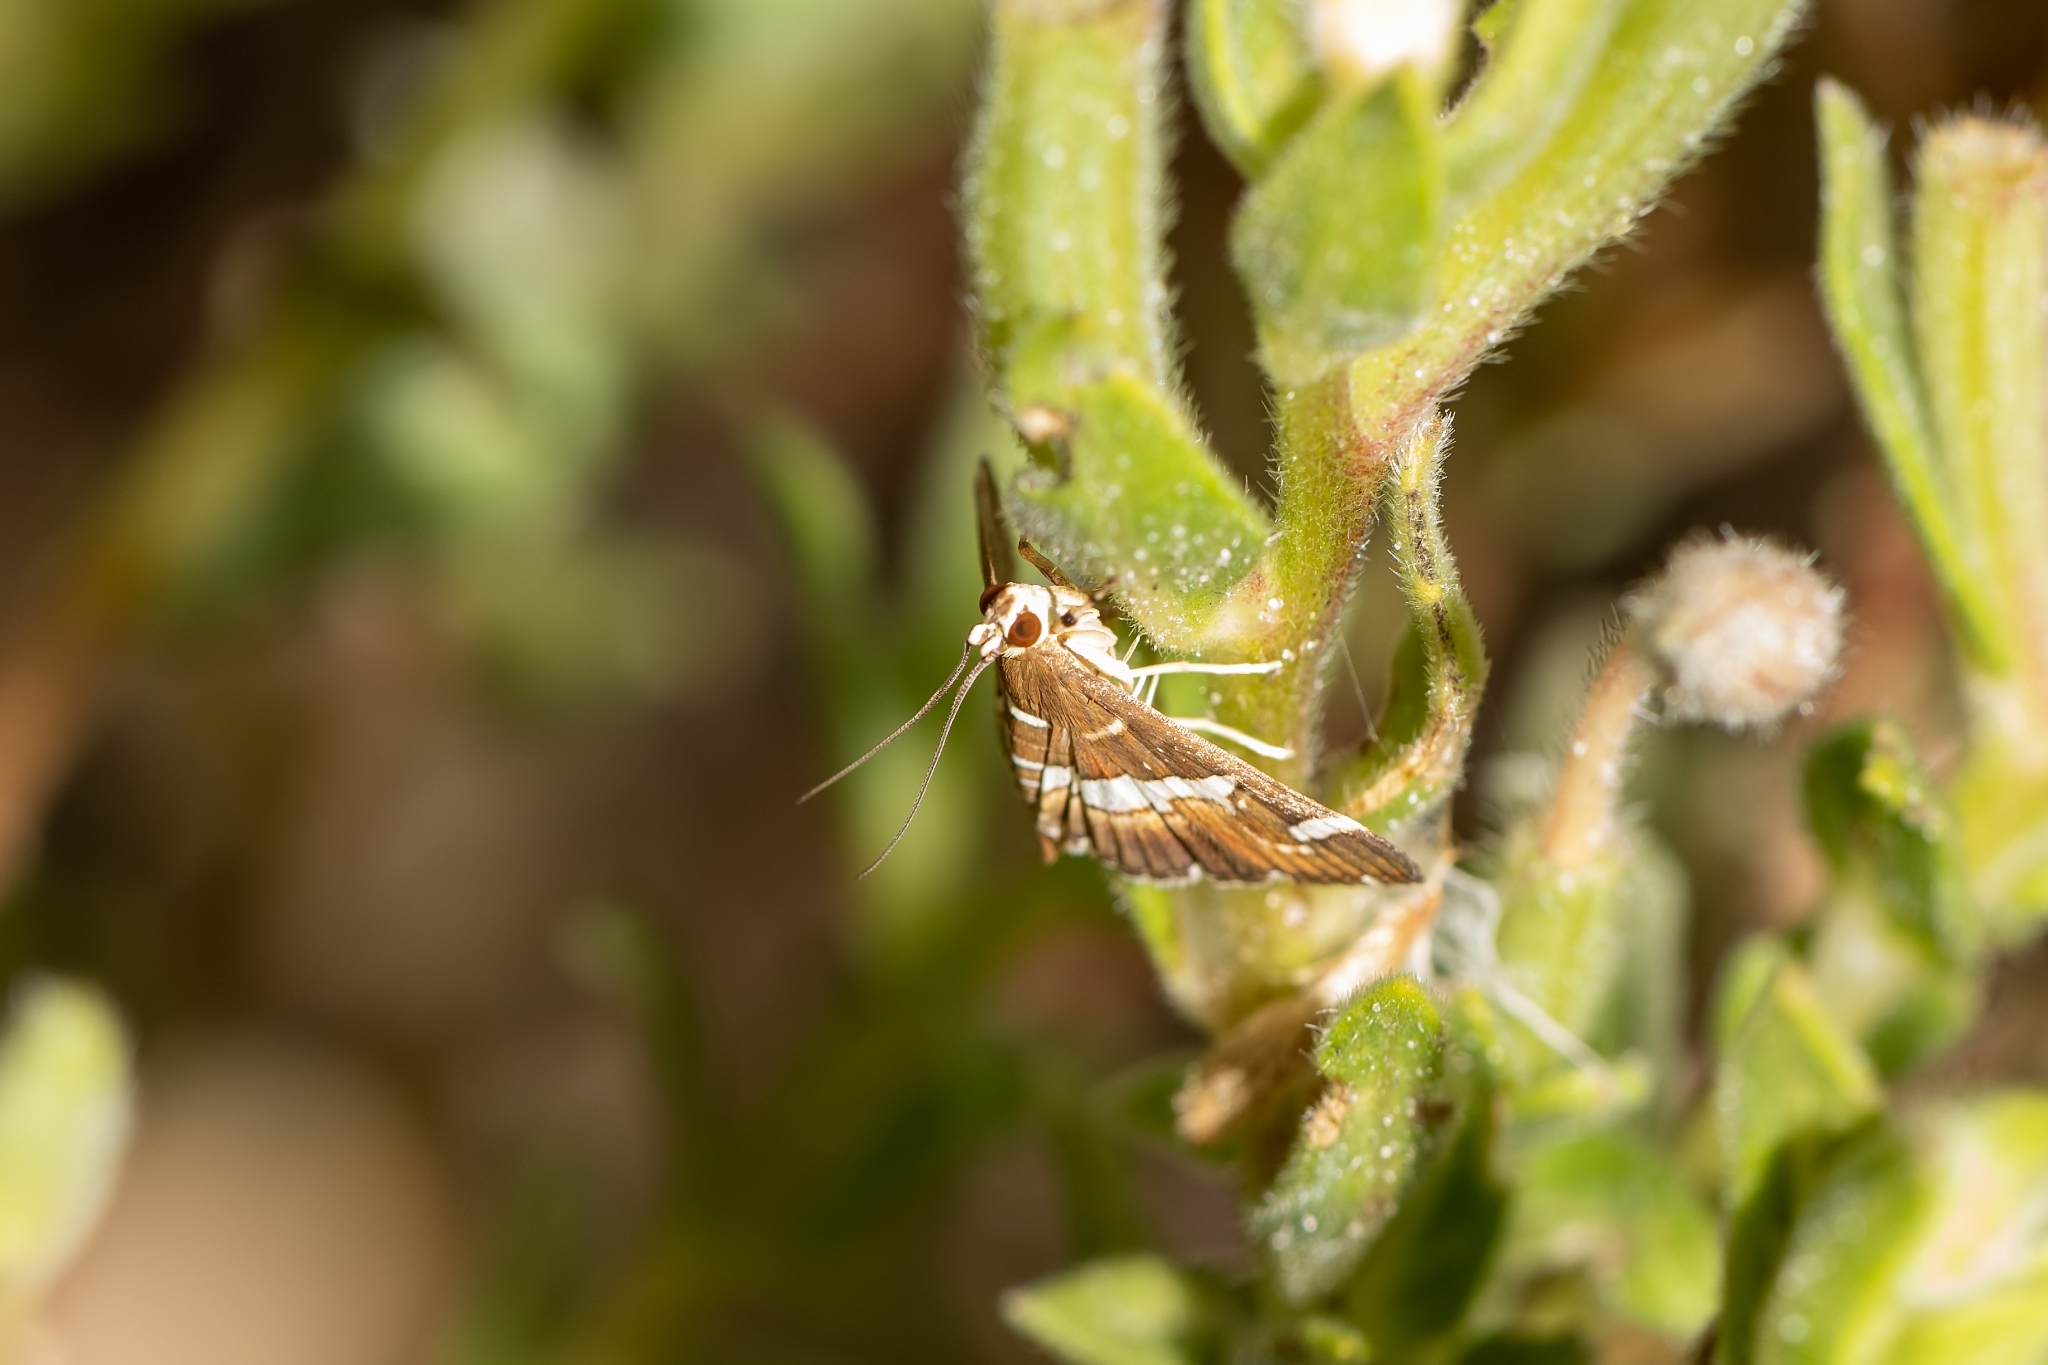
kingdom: Animalia
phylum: Arthropoda
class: Insecta
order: Lepidoptera
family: Crambidae
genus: Spoladea
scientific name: Spoladea recurvalis
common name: Beet webworm moth
